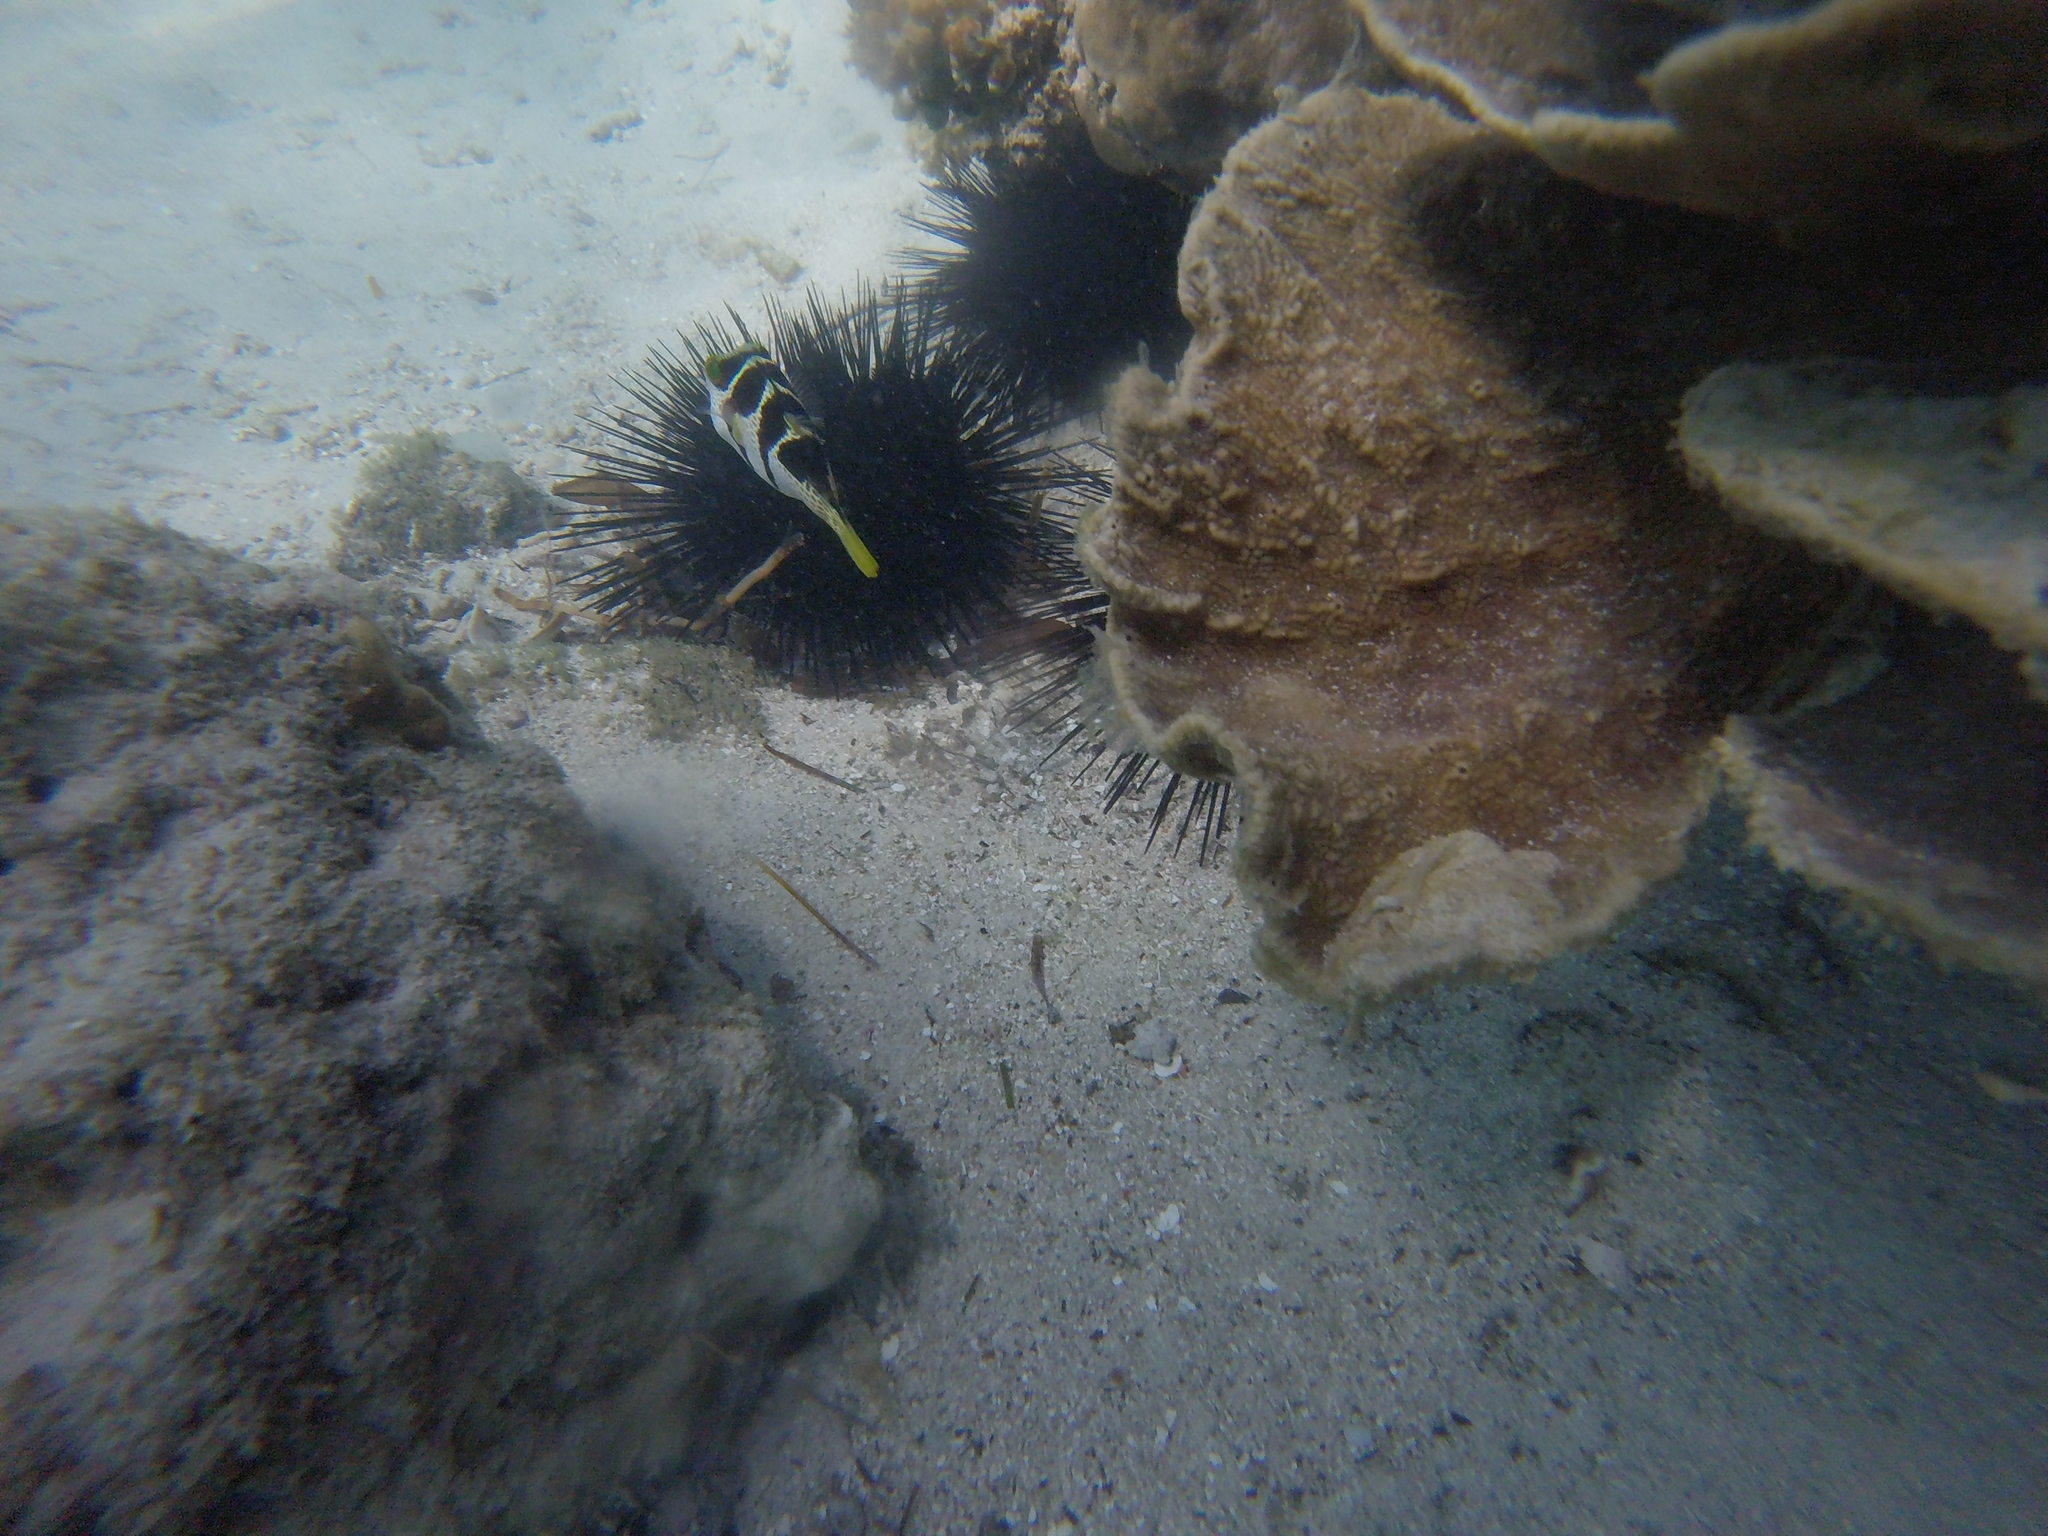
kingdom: Animalia
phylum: Chordata
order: Tetraodontiformes
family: Tetraodontidae
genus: Canthigaster
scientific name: Canthigaster valentini
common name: Banded toby
